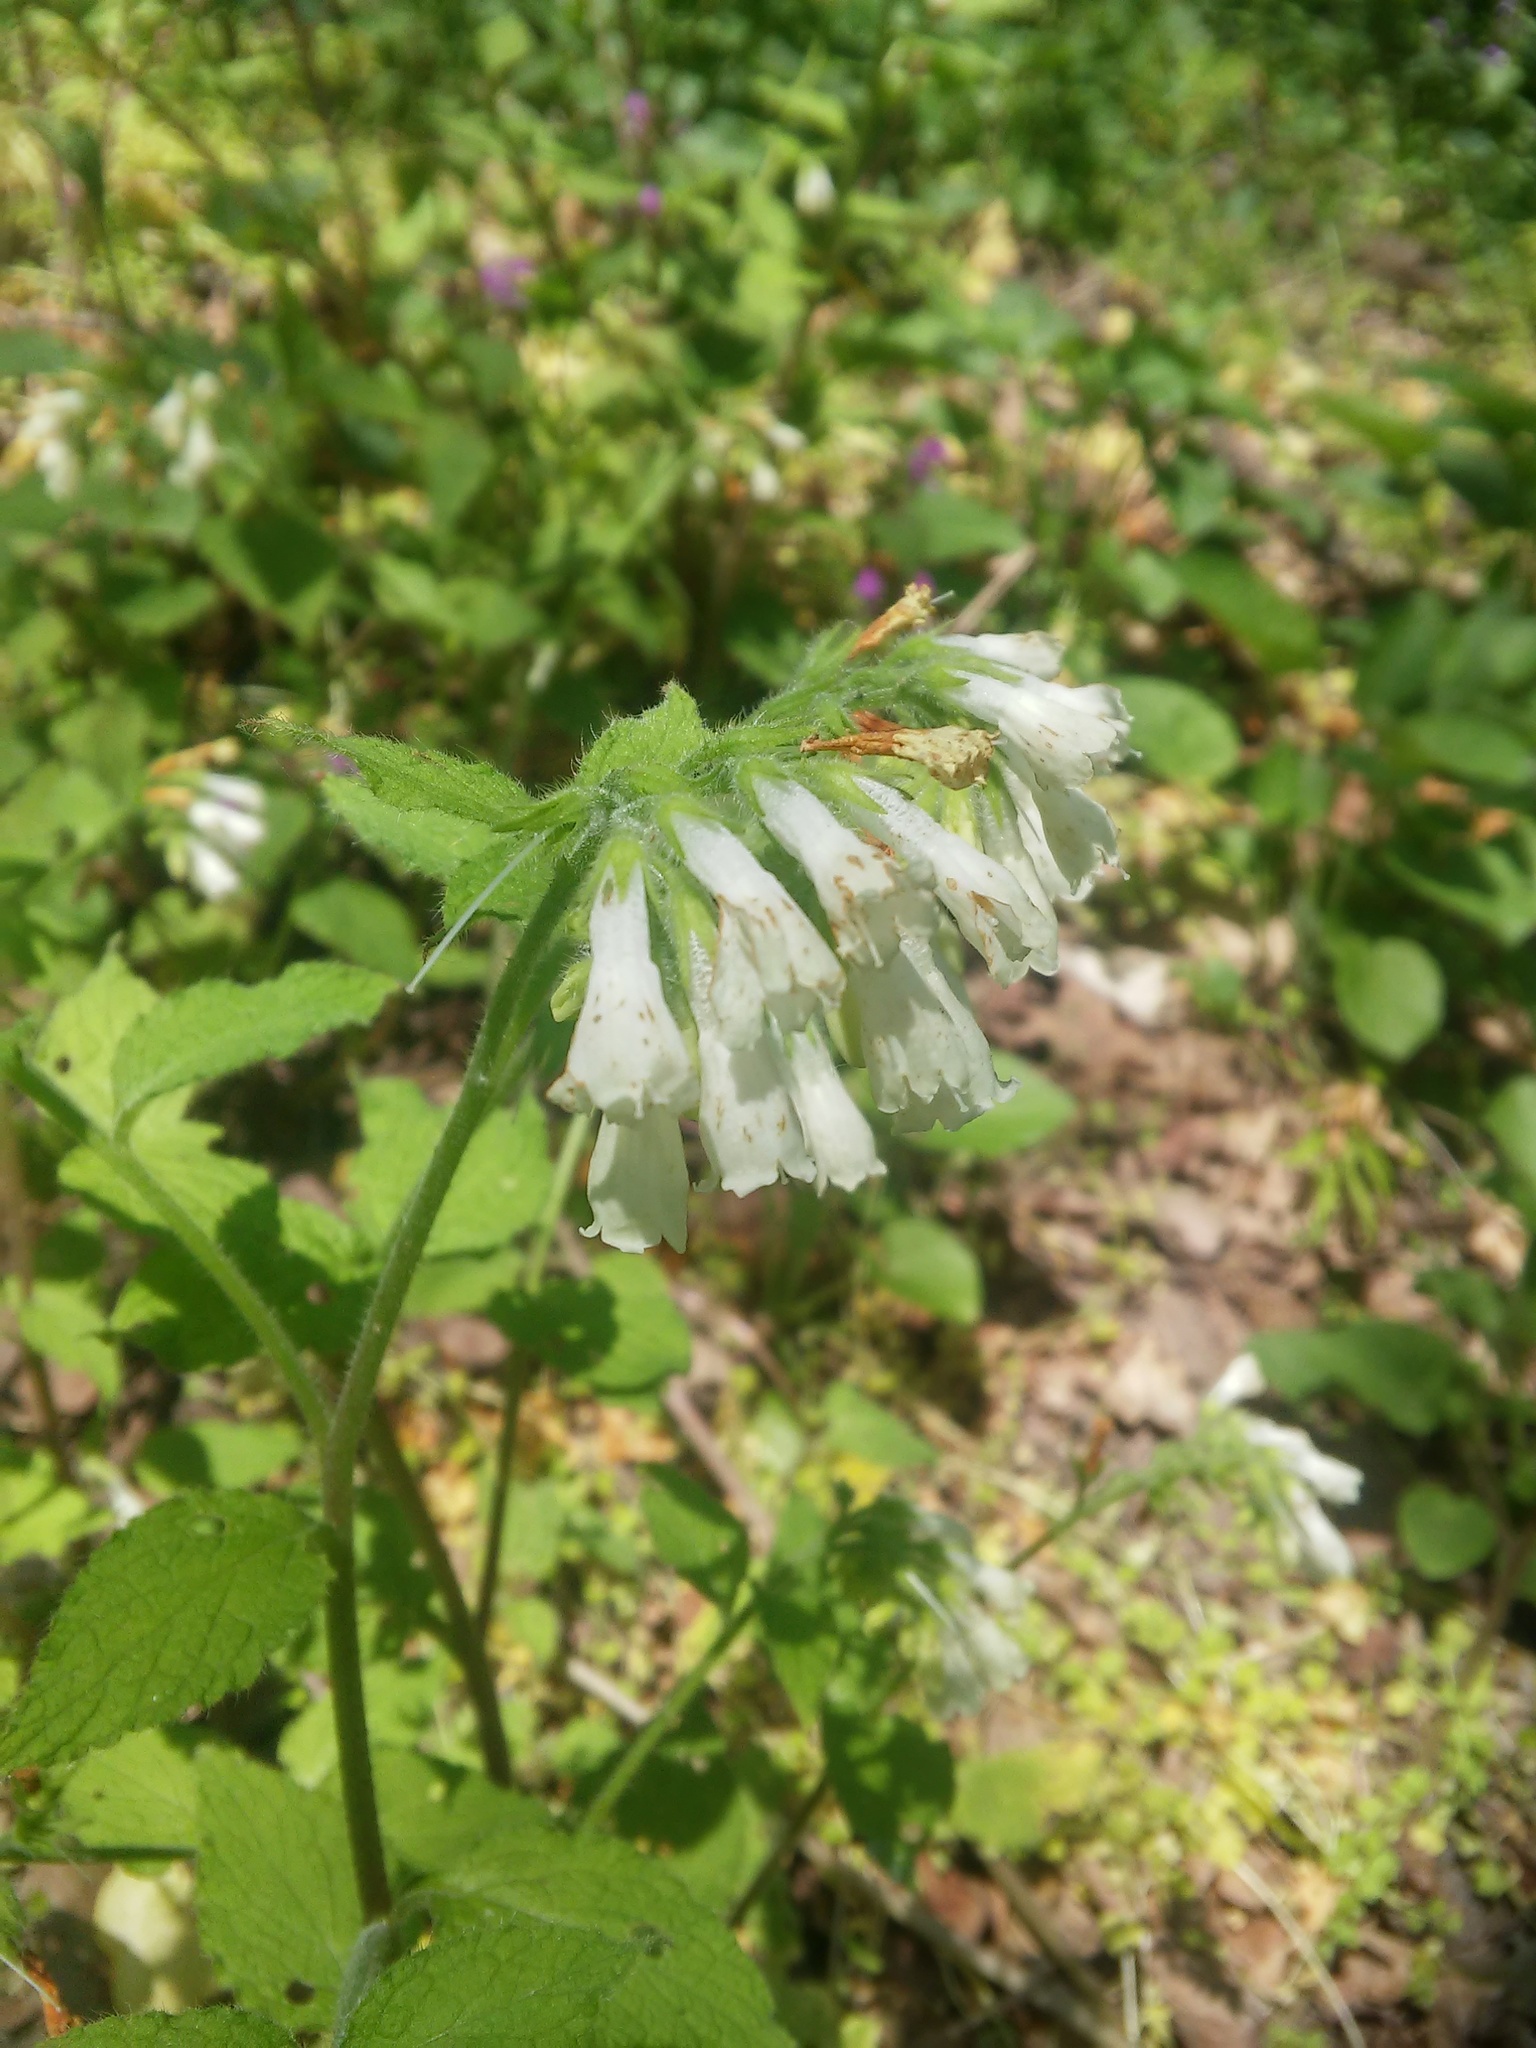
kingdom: Plantae
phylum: Tracheophyta
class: Magnoliopsida
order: Boraginales
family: Boraginaceae
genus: Symphytum
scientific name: Symphytum tauricum
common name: Crimean comfrey
